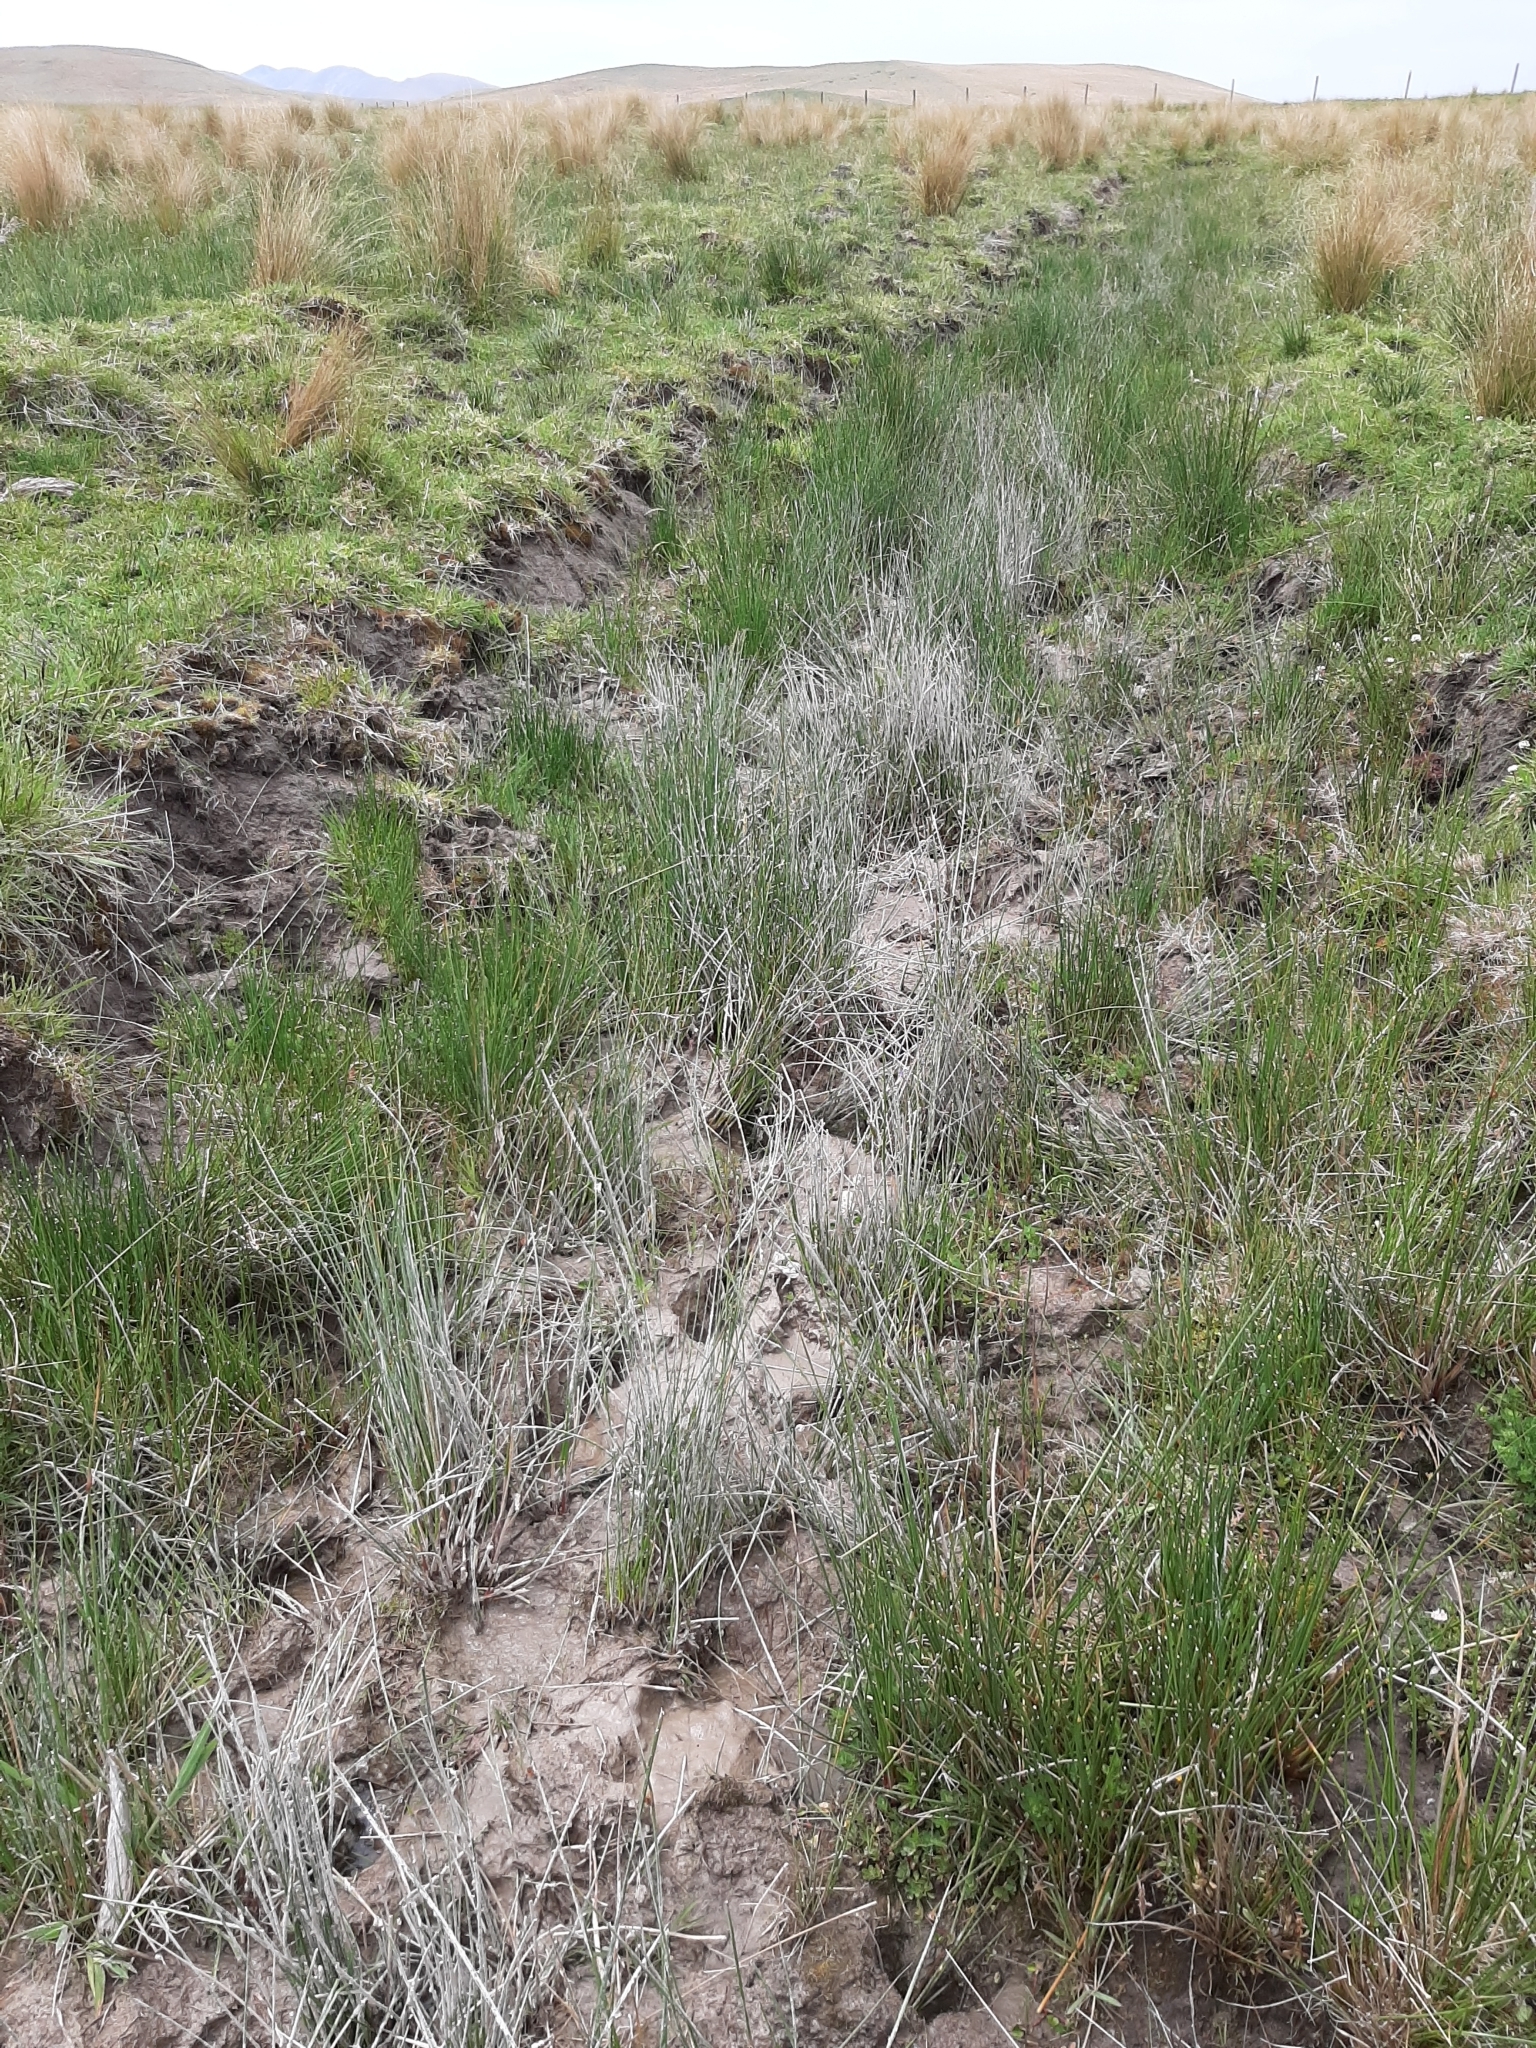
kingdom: Plantae
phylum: Tracheophyta
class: Liliopsida
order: Poales
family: Juncaceae
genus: Juncus
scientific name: Juncus effusus
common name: Soft rush
